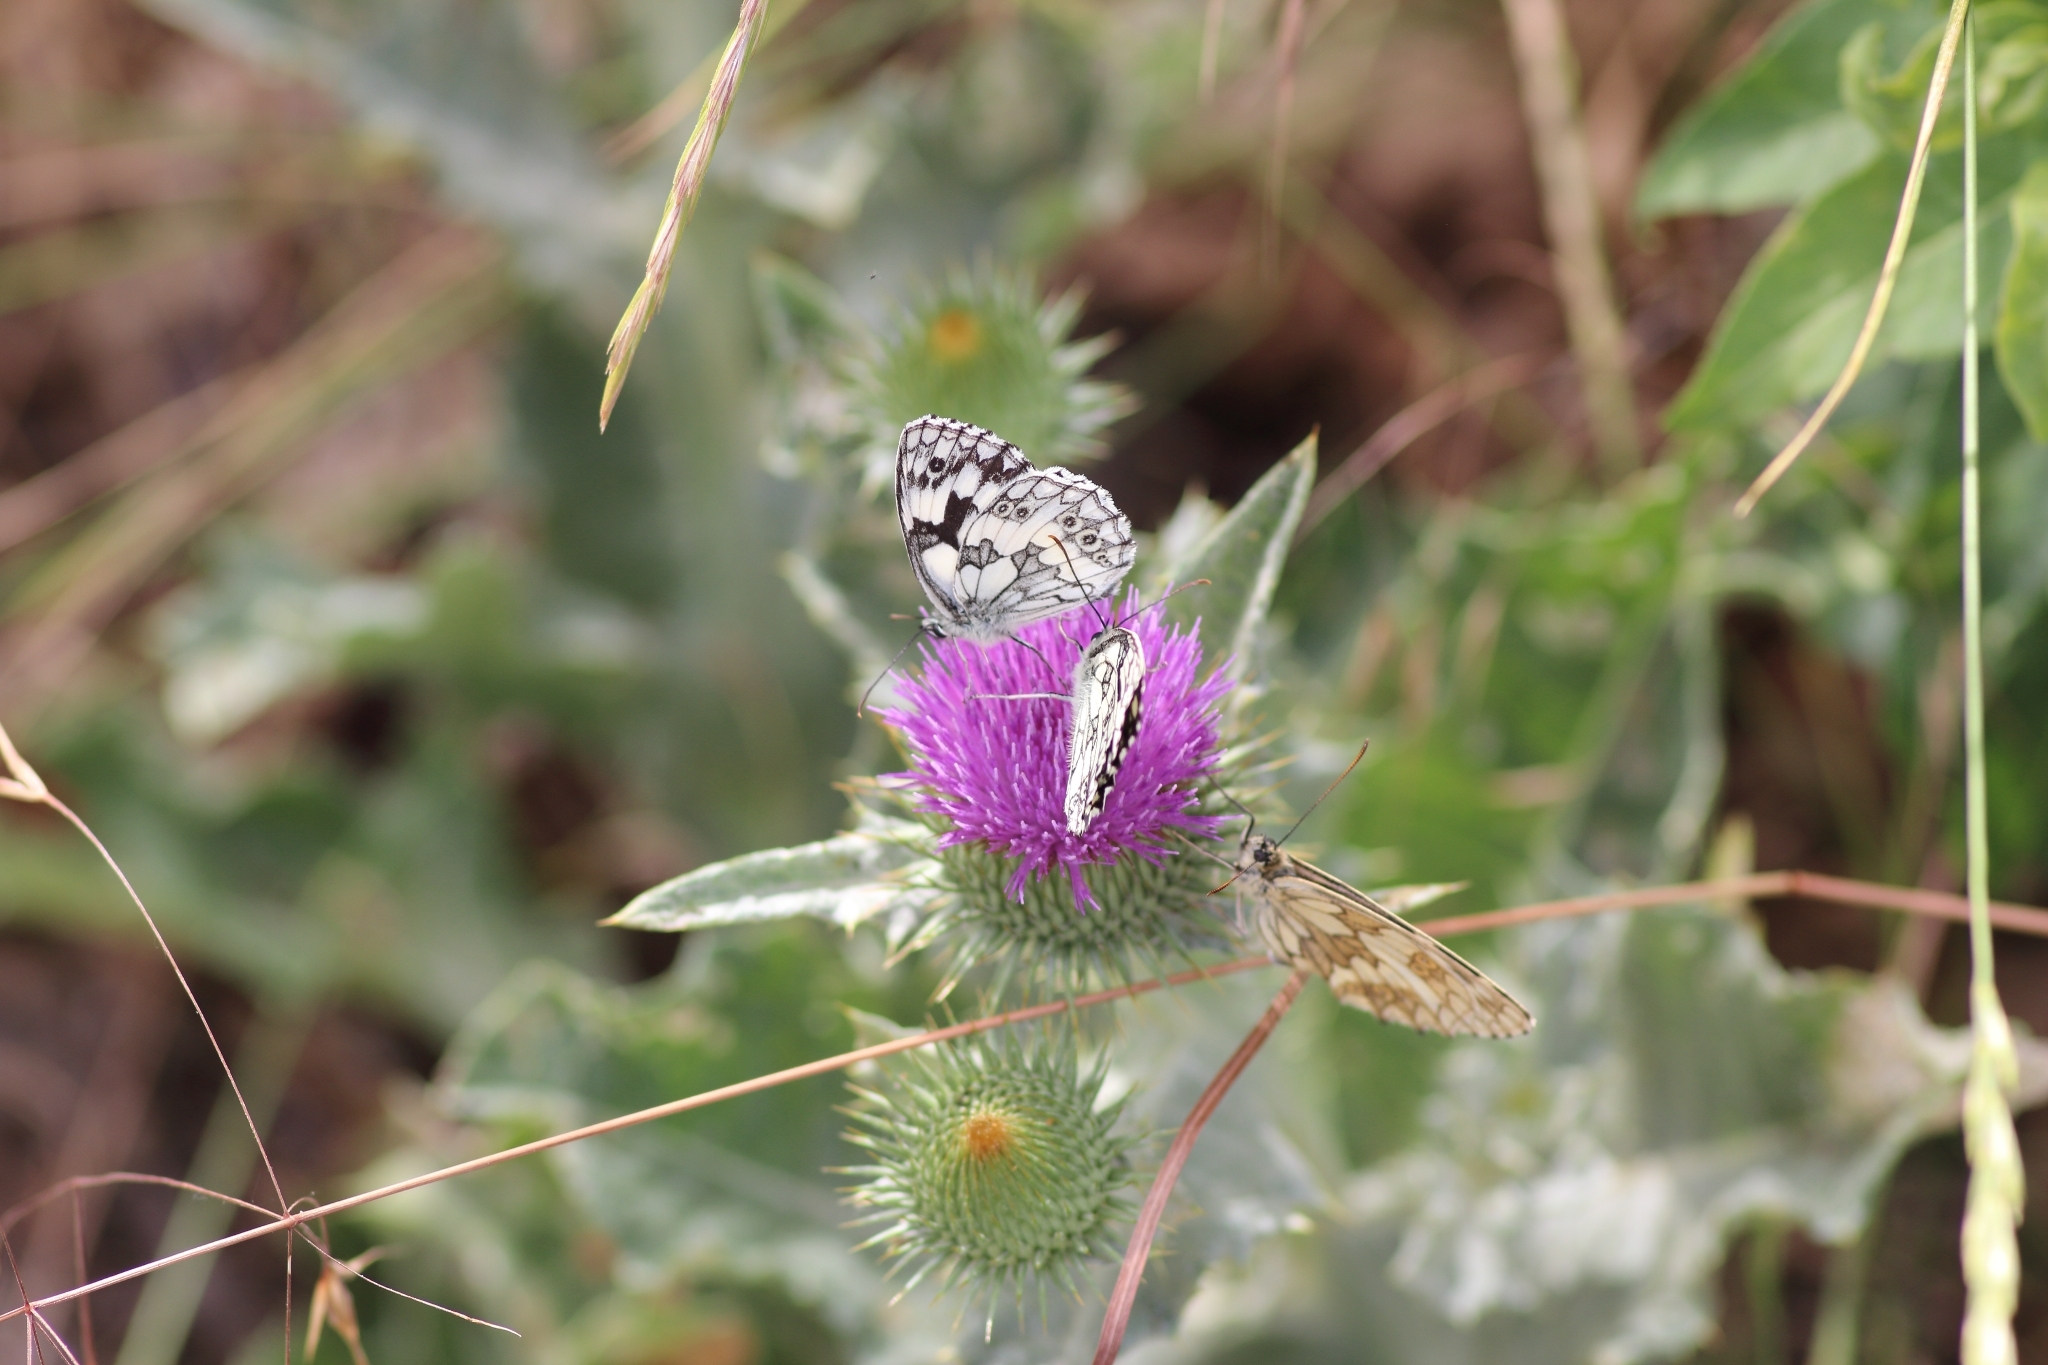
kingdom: Animalia
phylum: Arthropoda
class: Insecta
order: Lepidoptera
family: Nymphalidae
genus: Melanargia
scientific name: Melanargia galathea
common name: Marbled white
